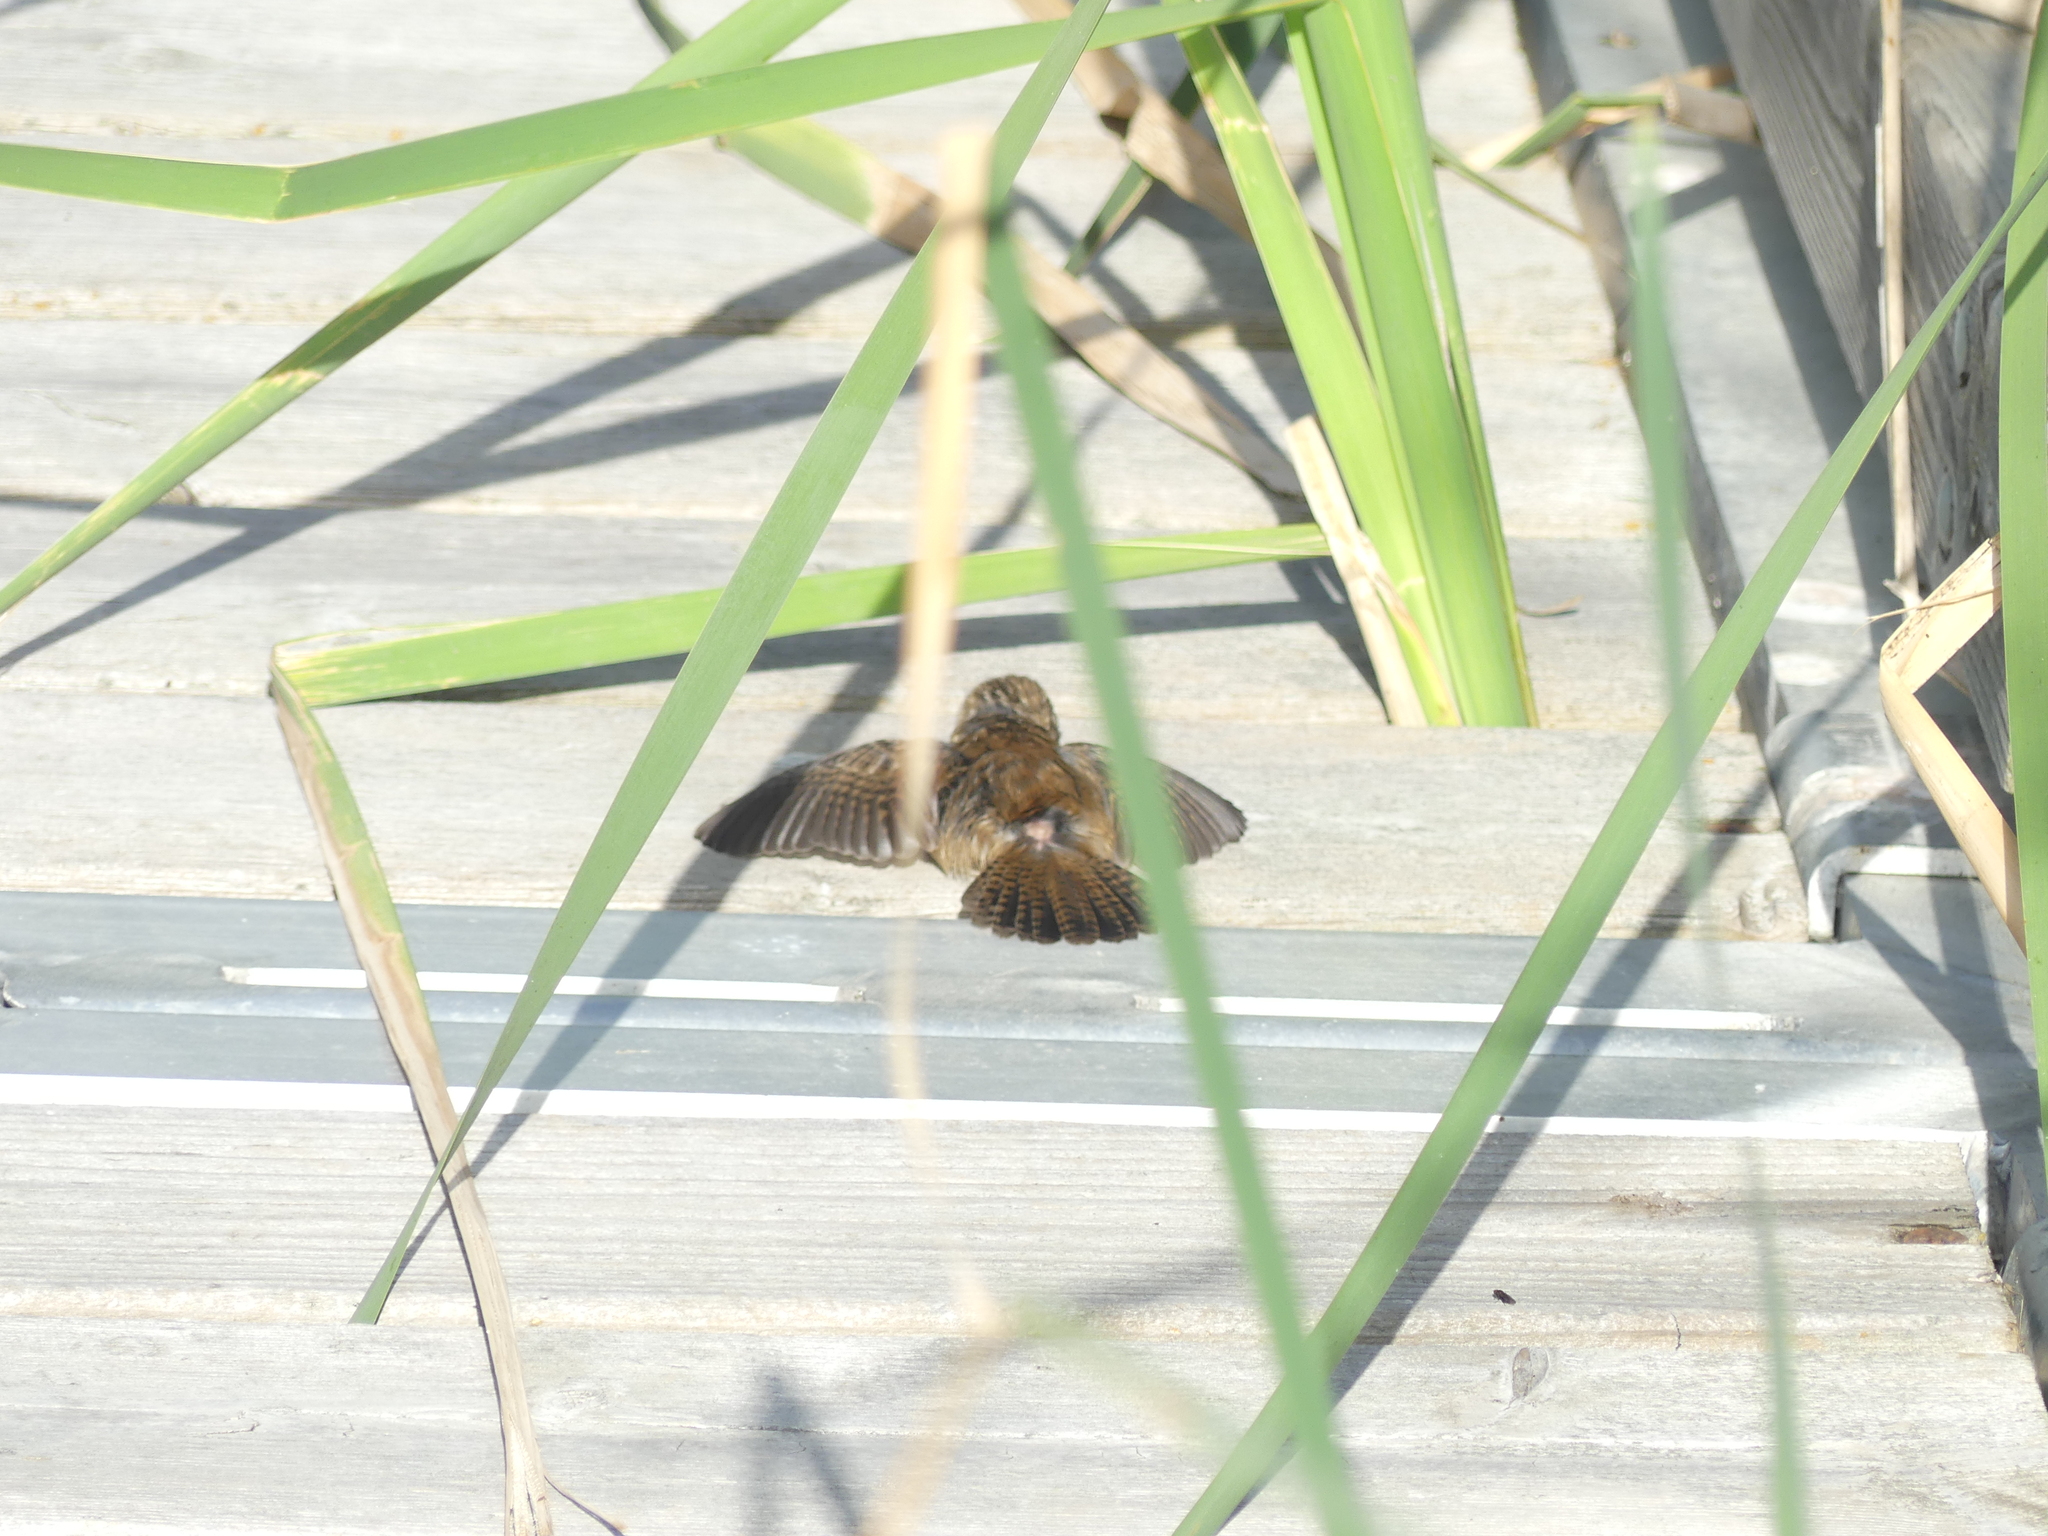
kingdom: Animalia
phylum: Chordata
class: Aves
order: Passeriformes
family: Troglodytidae
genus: Cistothorus
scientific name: Cistothorus palustris
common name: Marsh wren
